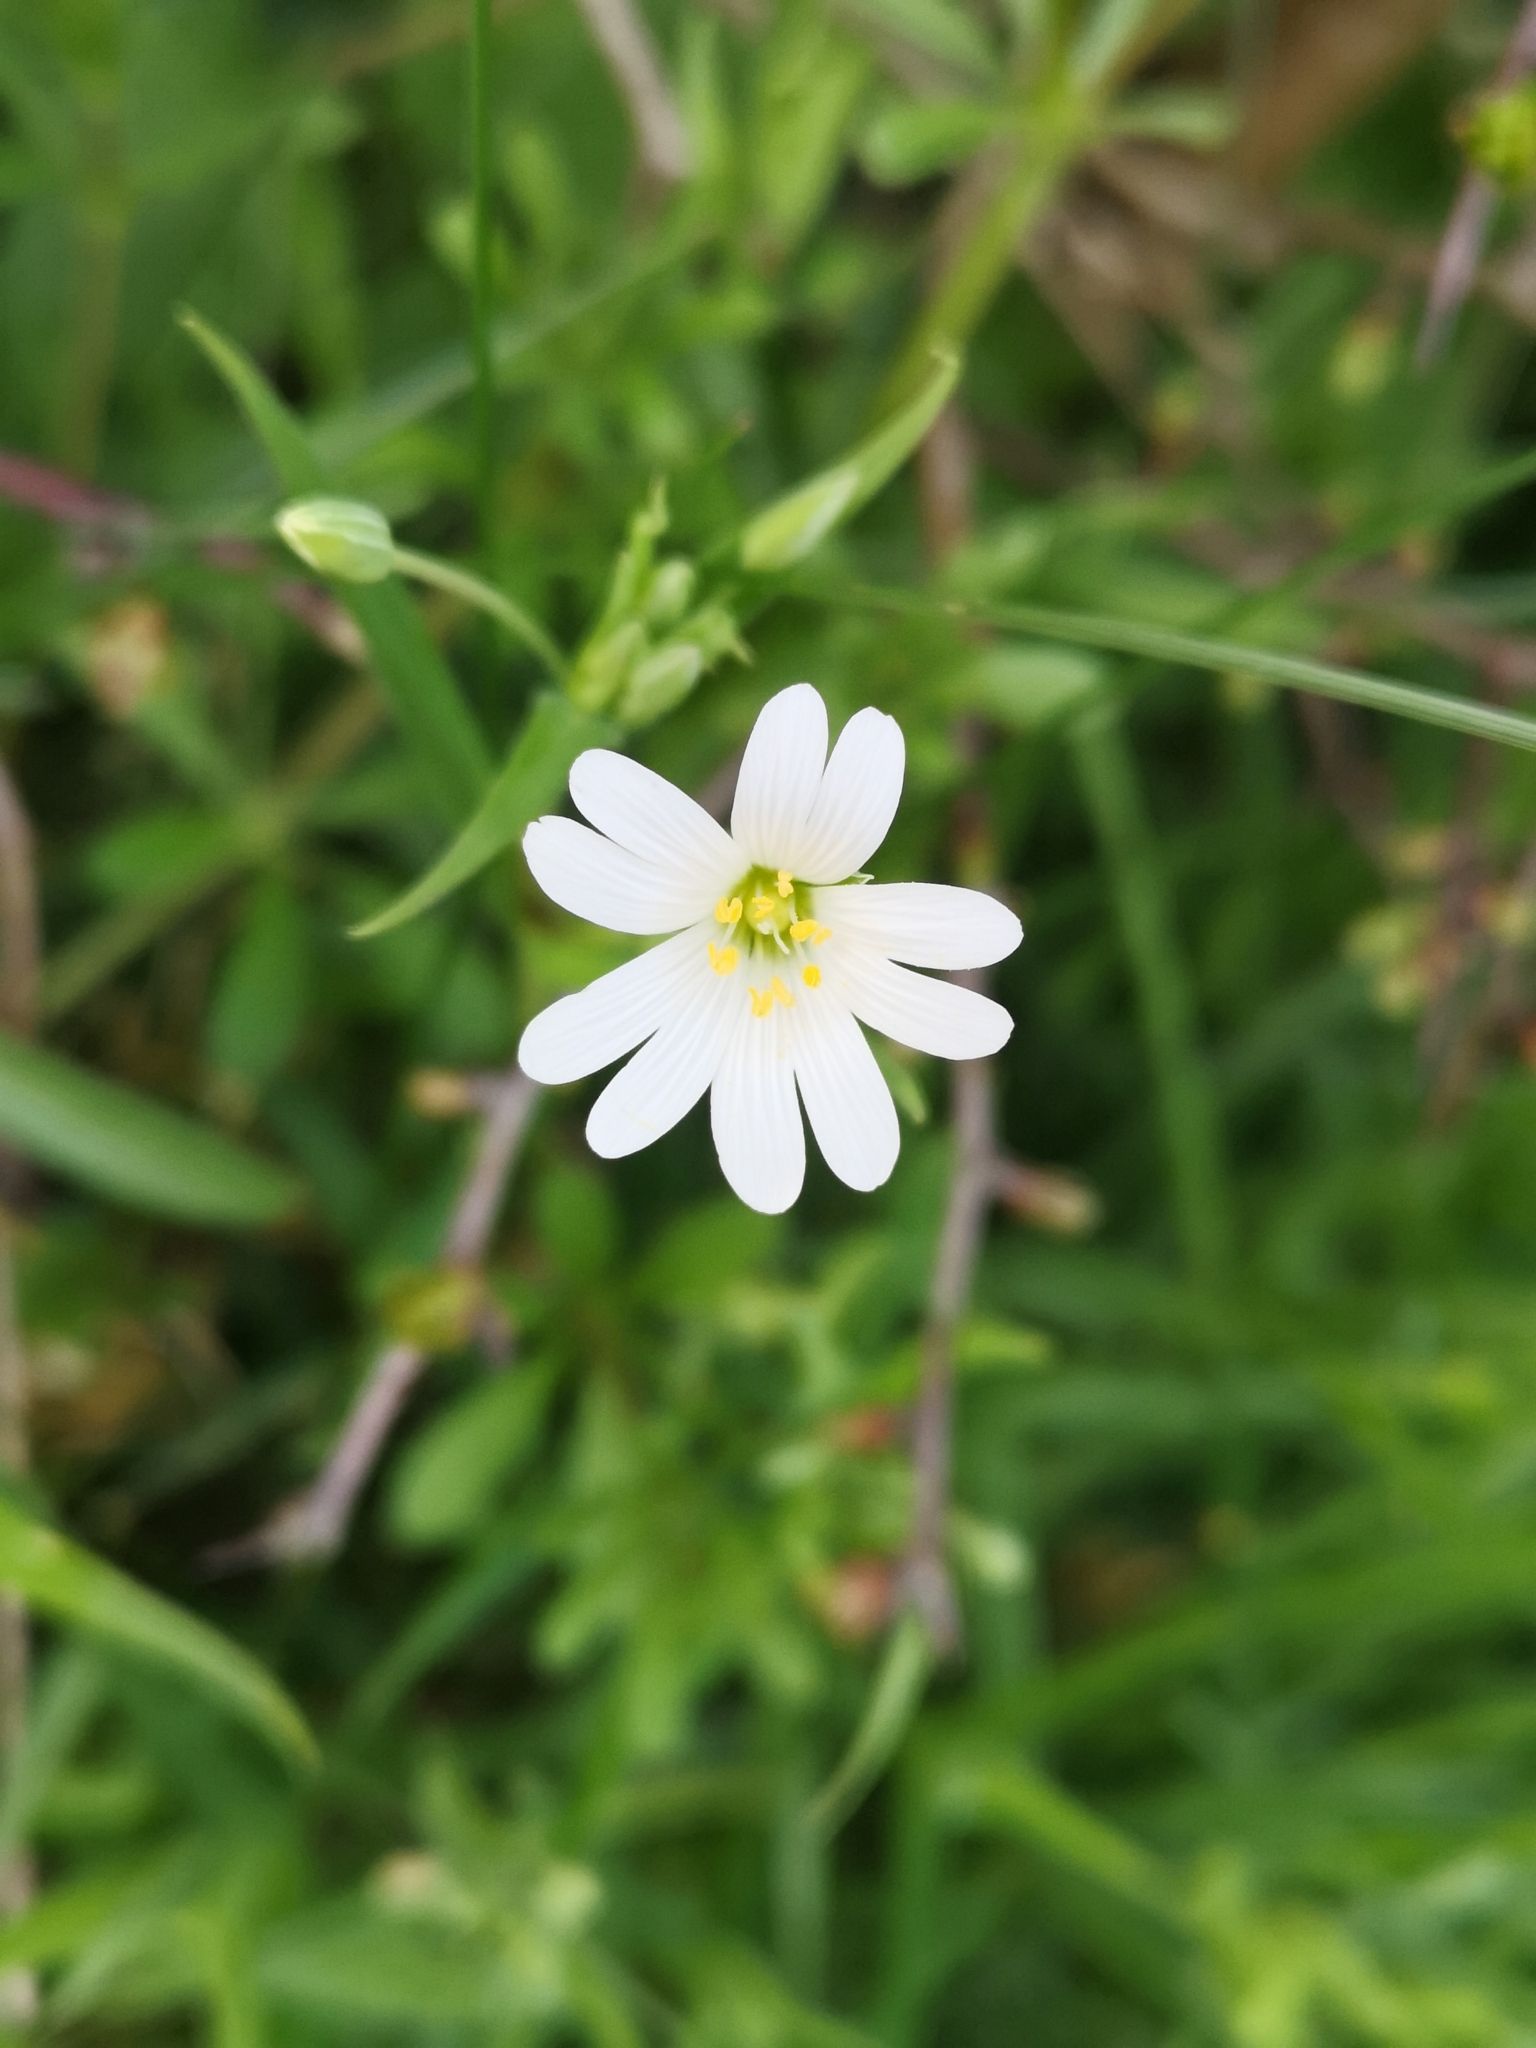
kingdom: Plantae
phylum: Tracheophyta
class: Magnoliopsida
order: Caryophyllales
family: Caryophyllaceae
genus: Rabelera
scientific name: Rabelera holostea
